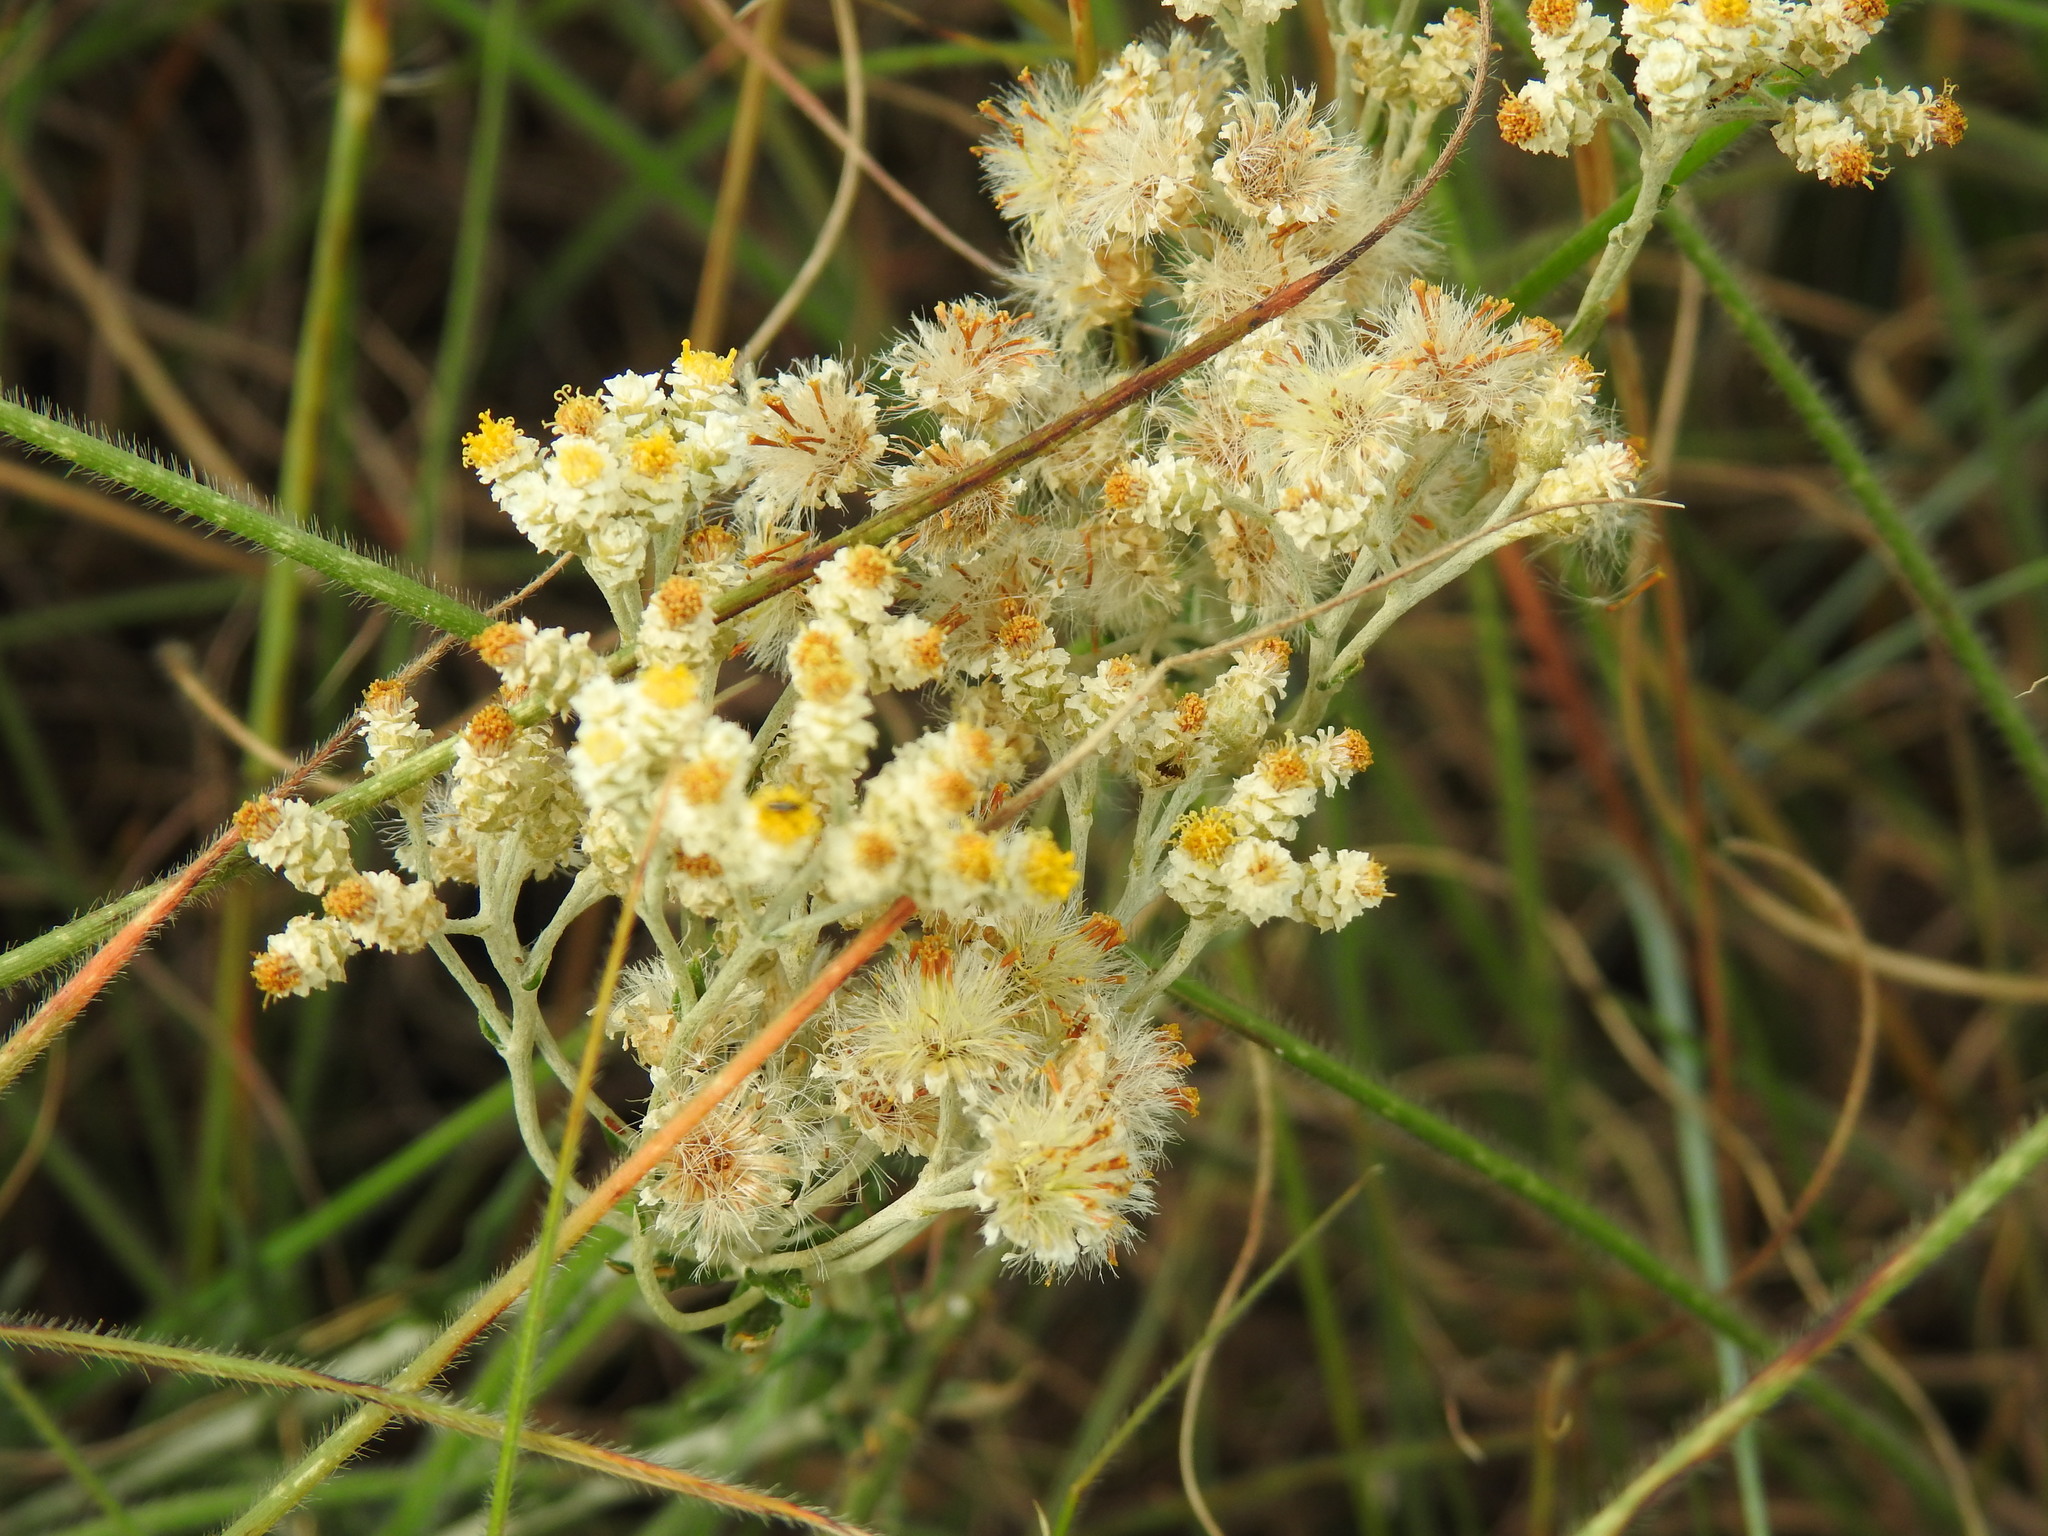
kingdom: Plantae
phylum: Tracheophyta
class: Magnoliopsida
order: Asterales
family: Asteraceae
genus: Helichrysum
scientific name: Helichrysum rugulosum
